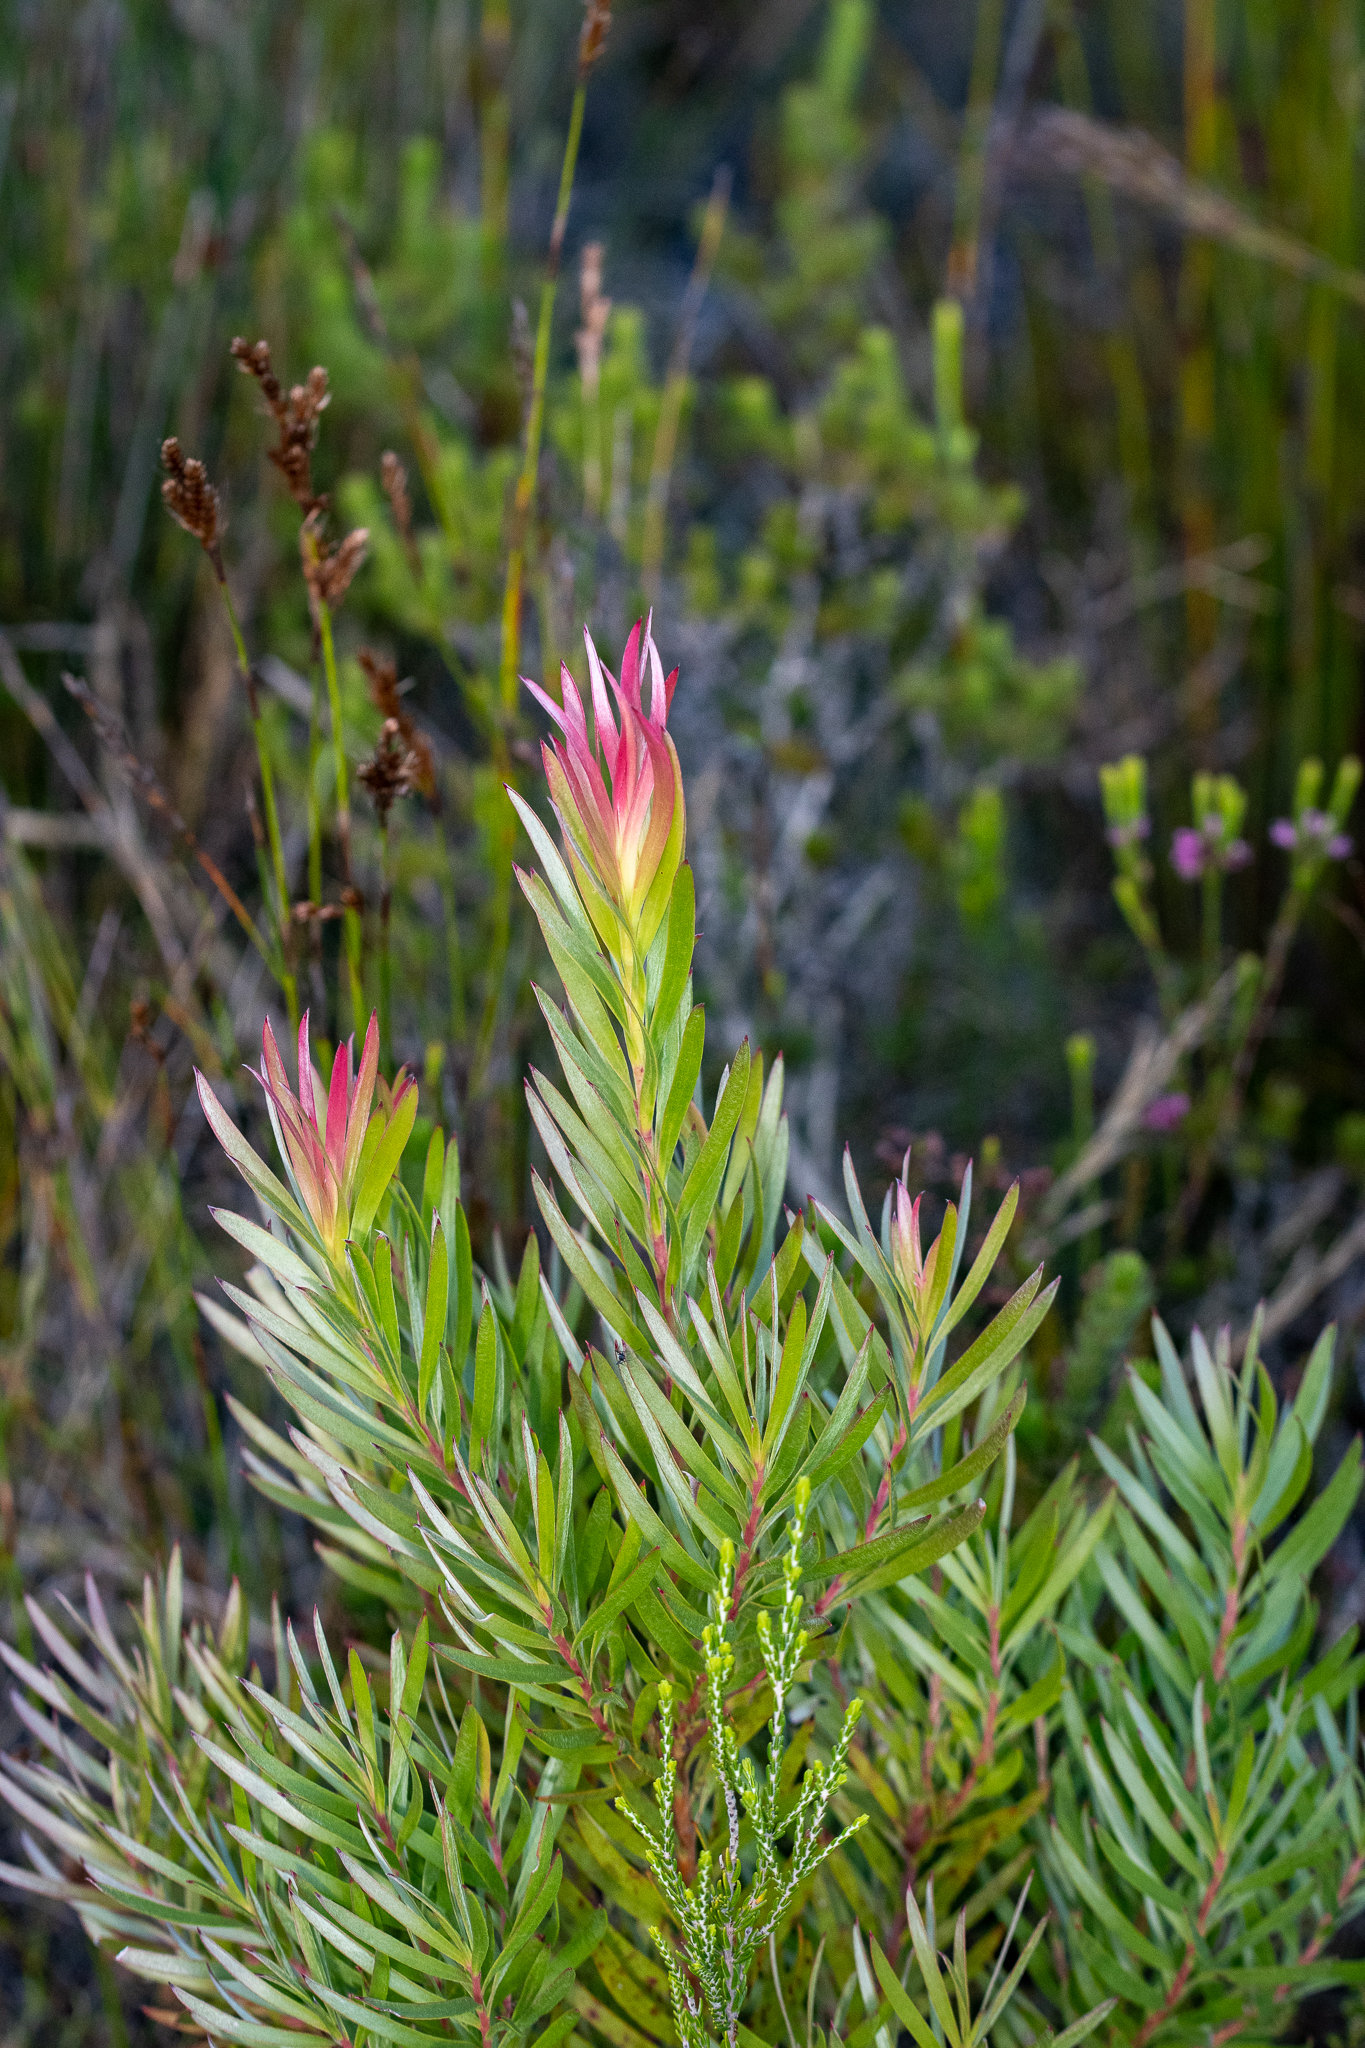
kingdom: Plantae
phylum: Tracheophyta
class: Magnoliopsida
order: Proteales
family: Proteaceae
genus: Leucadendron
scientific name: Leucadendron xanthoconus
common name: Sickle-leaf conebush
